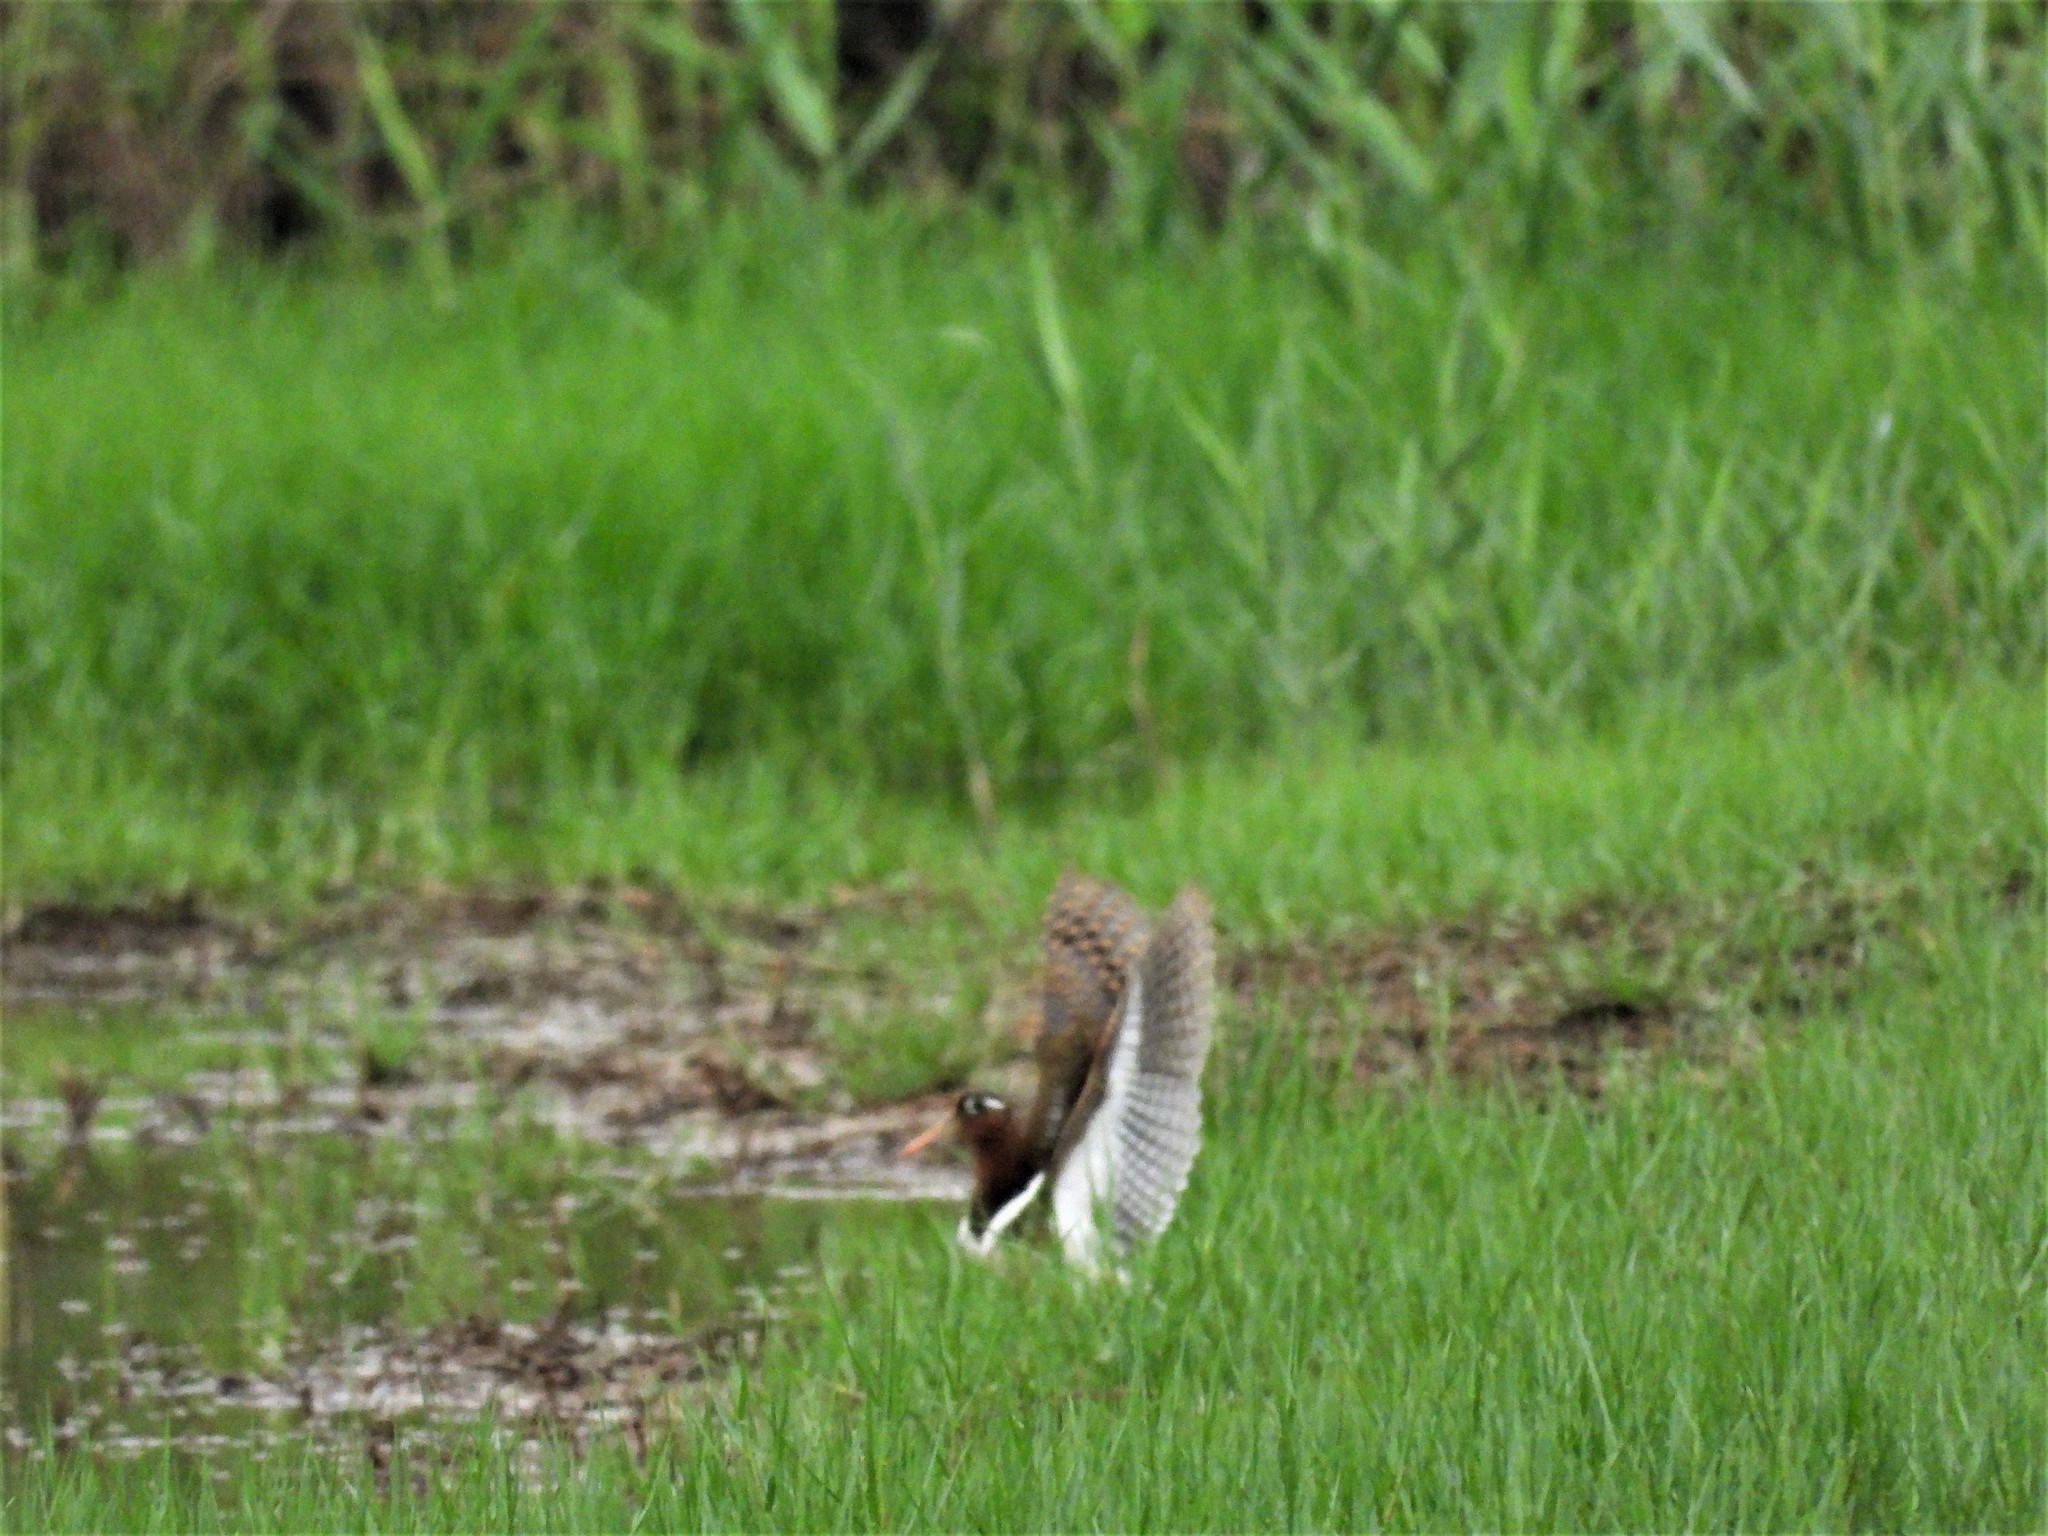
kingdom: Animalia
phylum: Chordata
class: Aves
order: Charadriiformes
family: Rostratulidae
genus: Rostratula
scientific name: Rostratula benghalensis
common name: Greater painted-snipe
